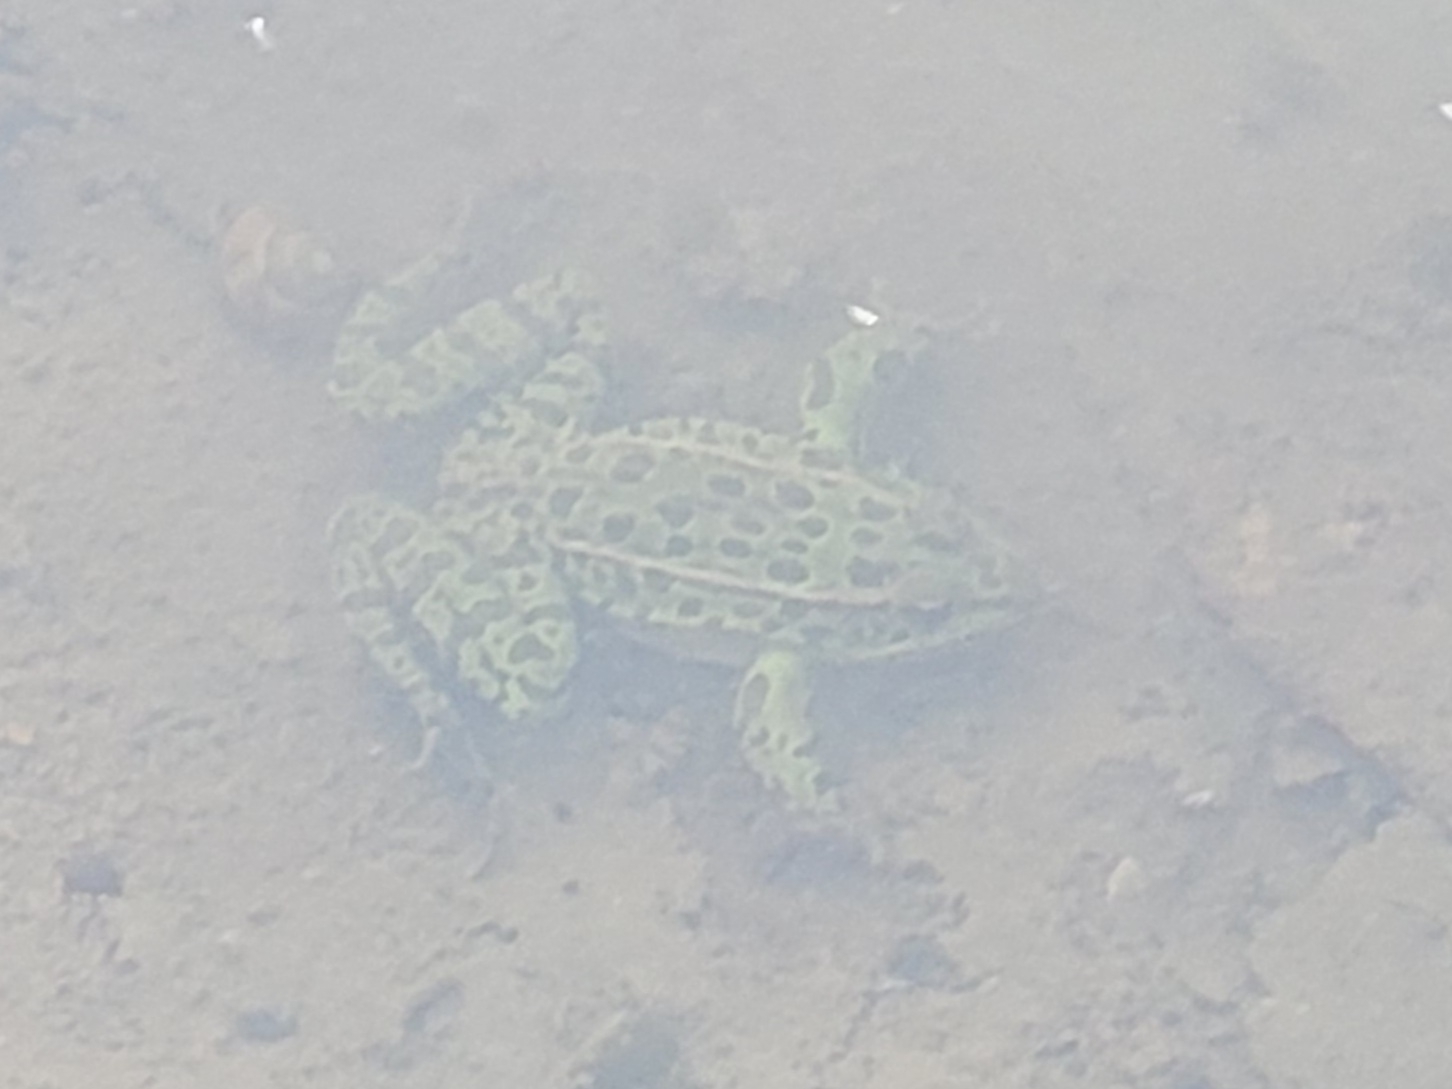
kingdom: Animalia
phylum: Chordata
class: Amphibia
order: Anura
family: Ranidae
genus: Lithobates
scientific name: Lithobates pipiens
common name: Northern leopard frog
